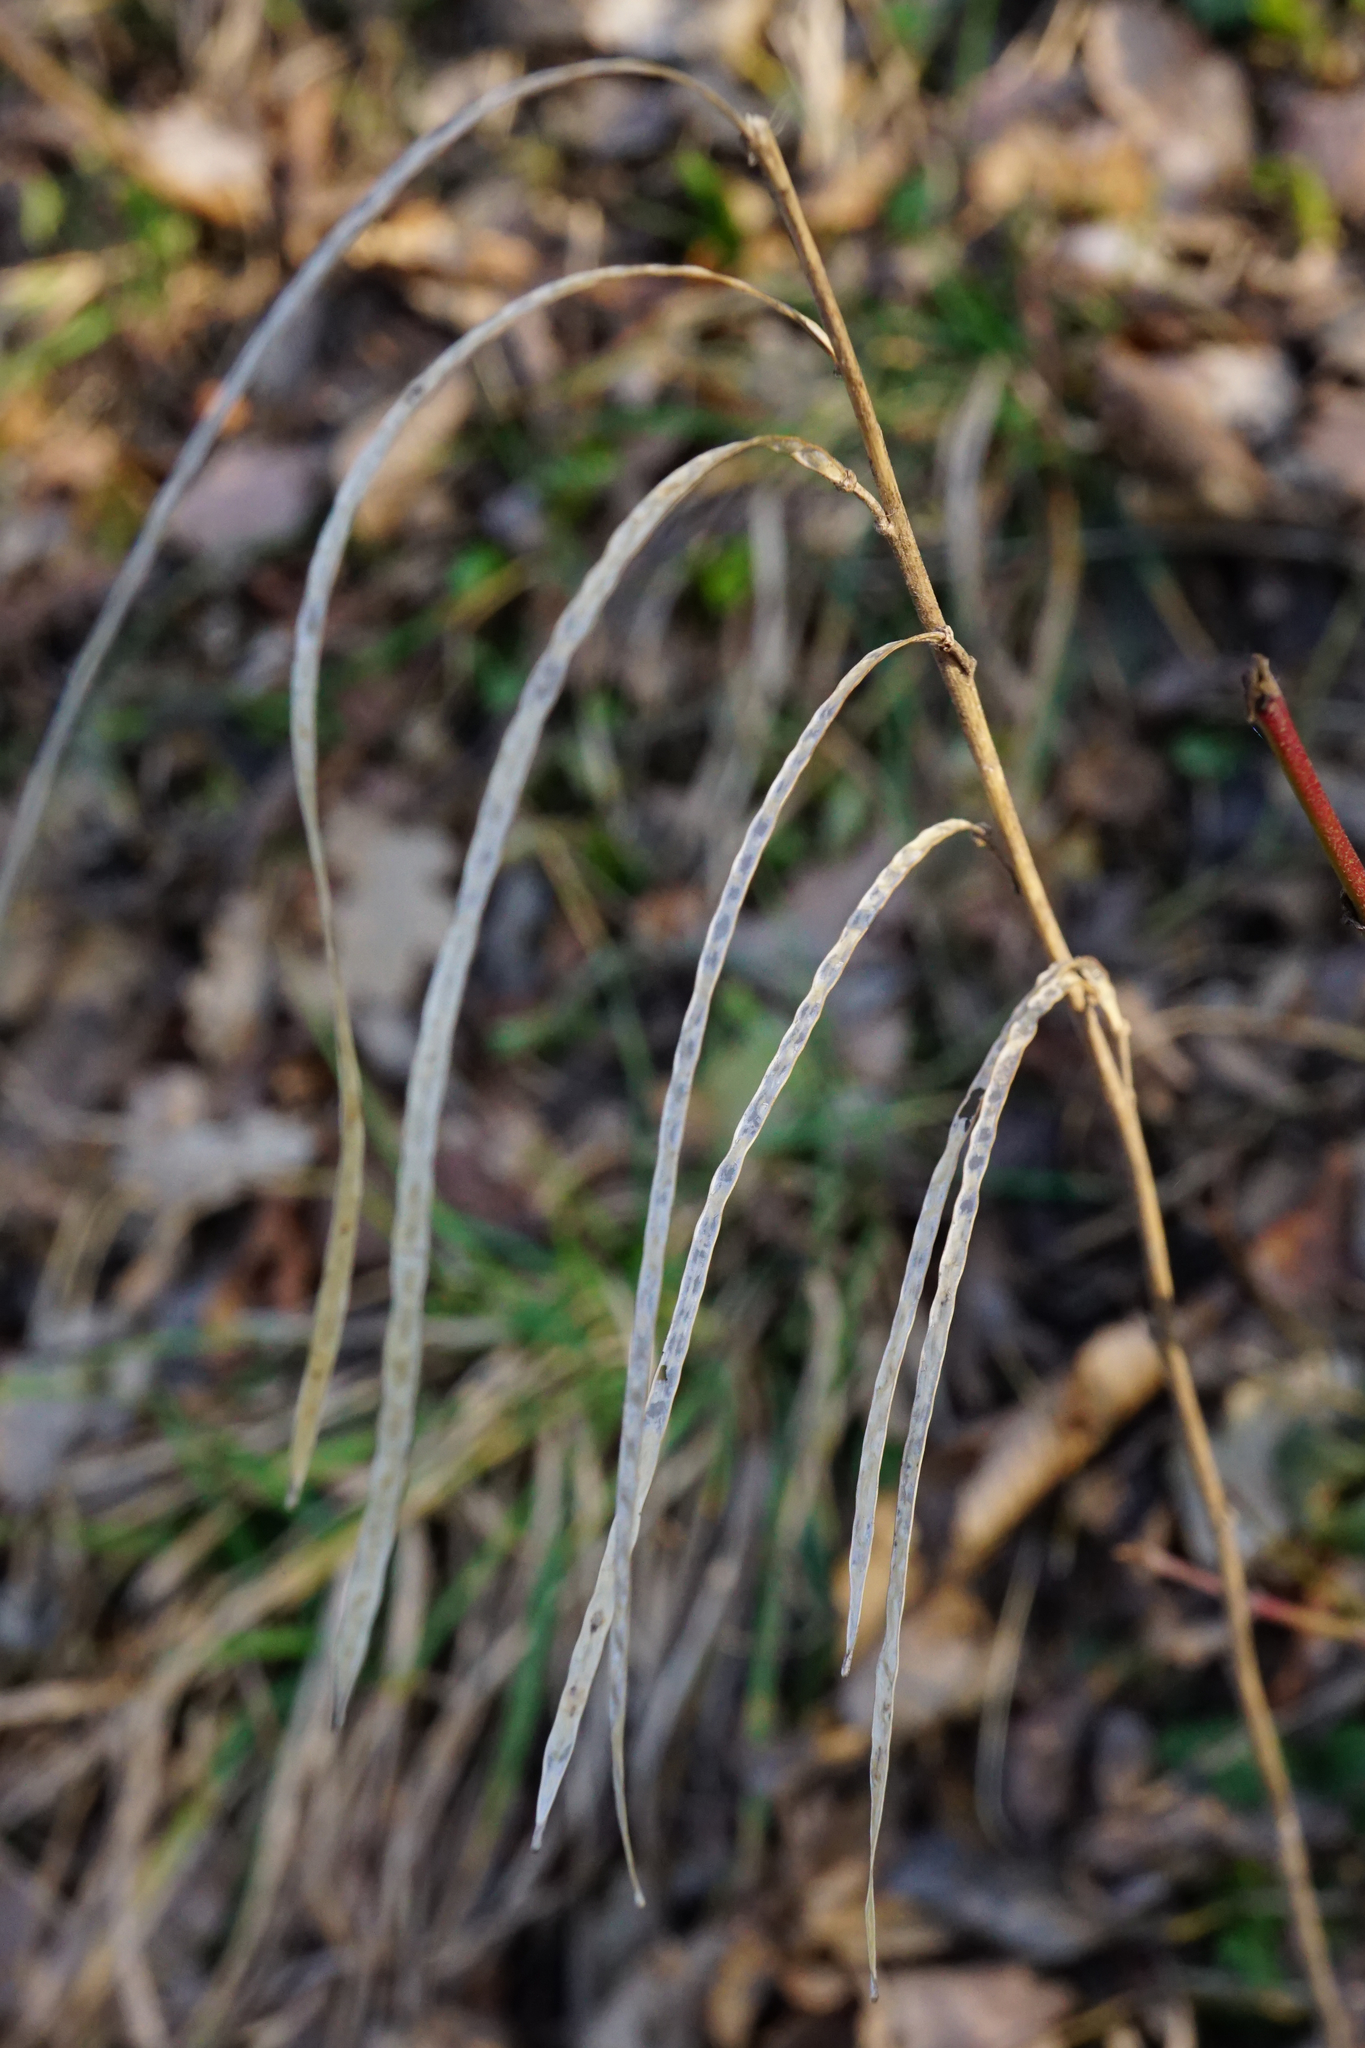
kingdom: Plantae
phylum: Tracheophyta
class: Magnoliopsida
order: Brassicales
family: Brassicaceae
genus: Pseudoturritis
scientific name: Pseudoturritis turrita
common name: Tower cress
